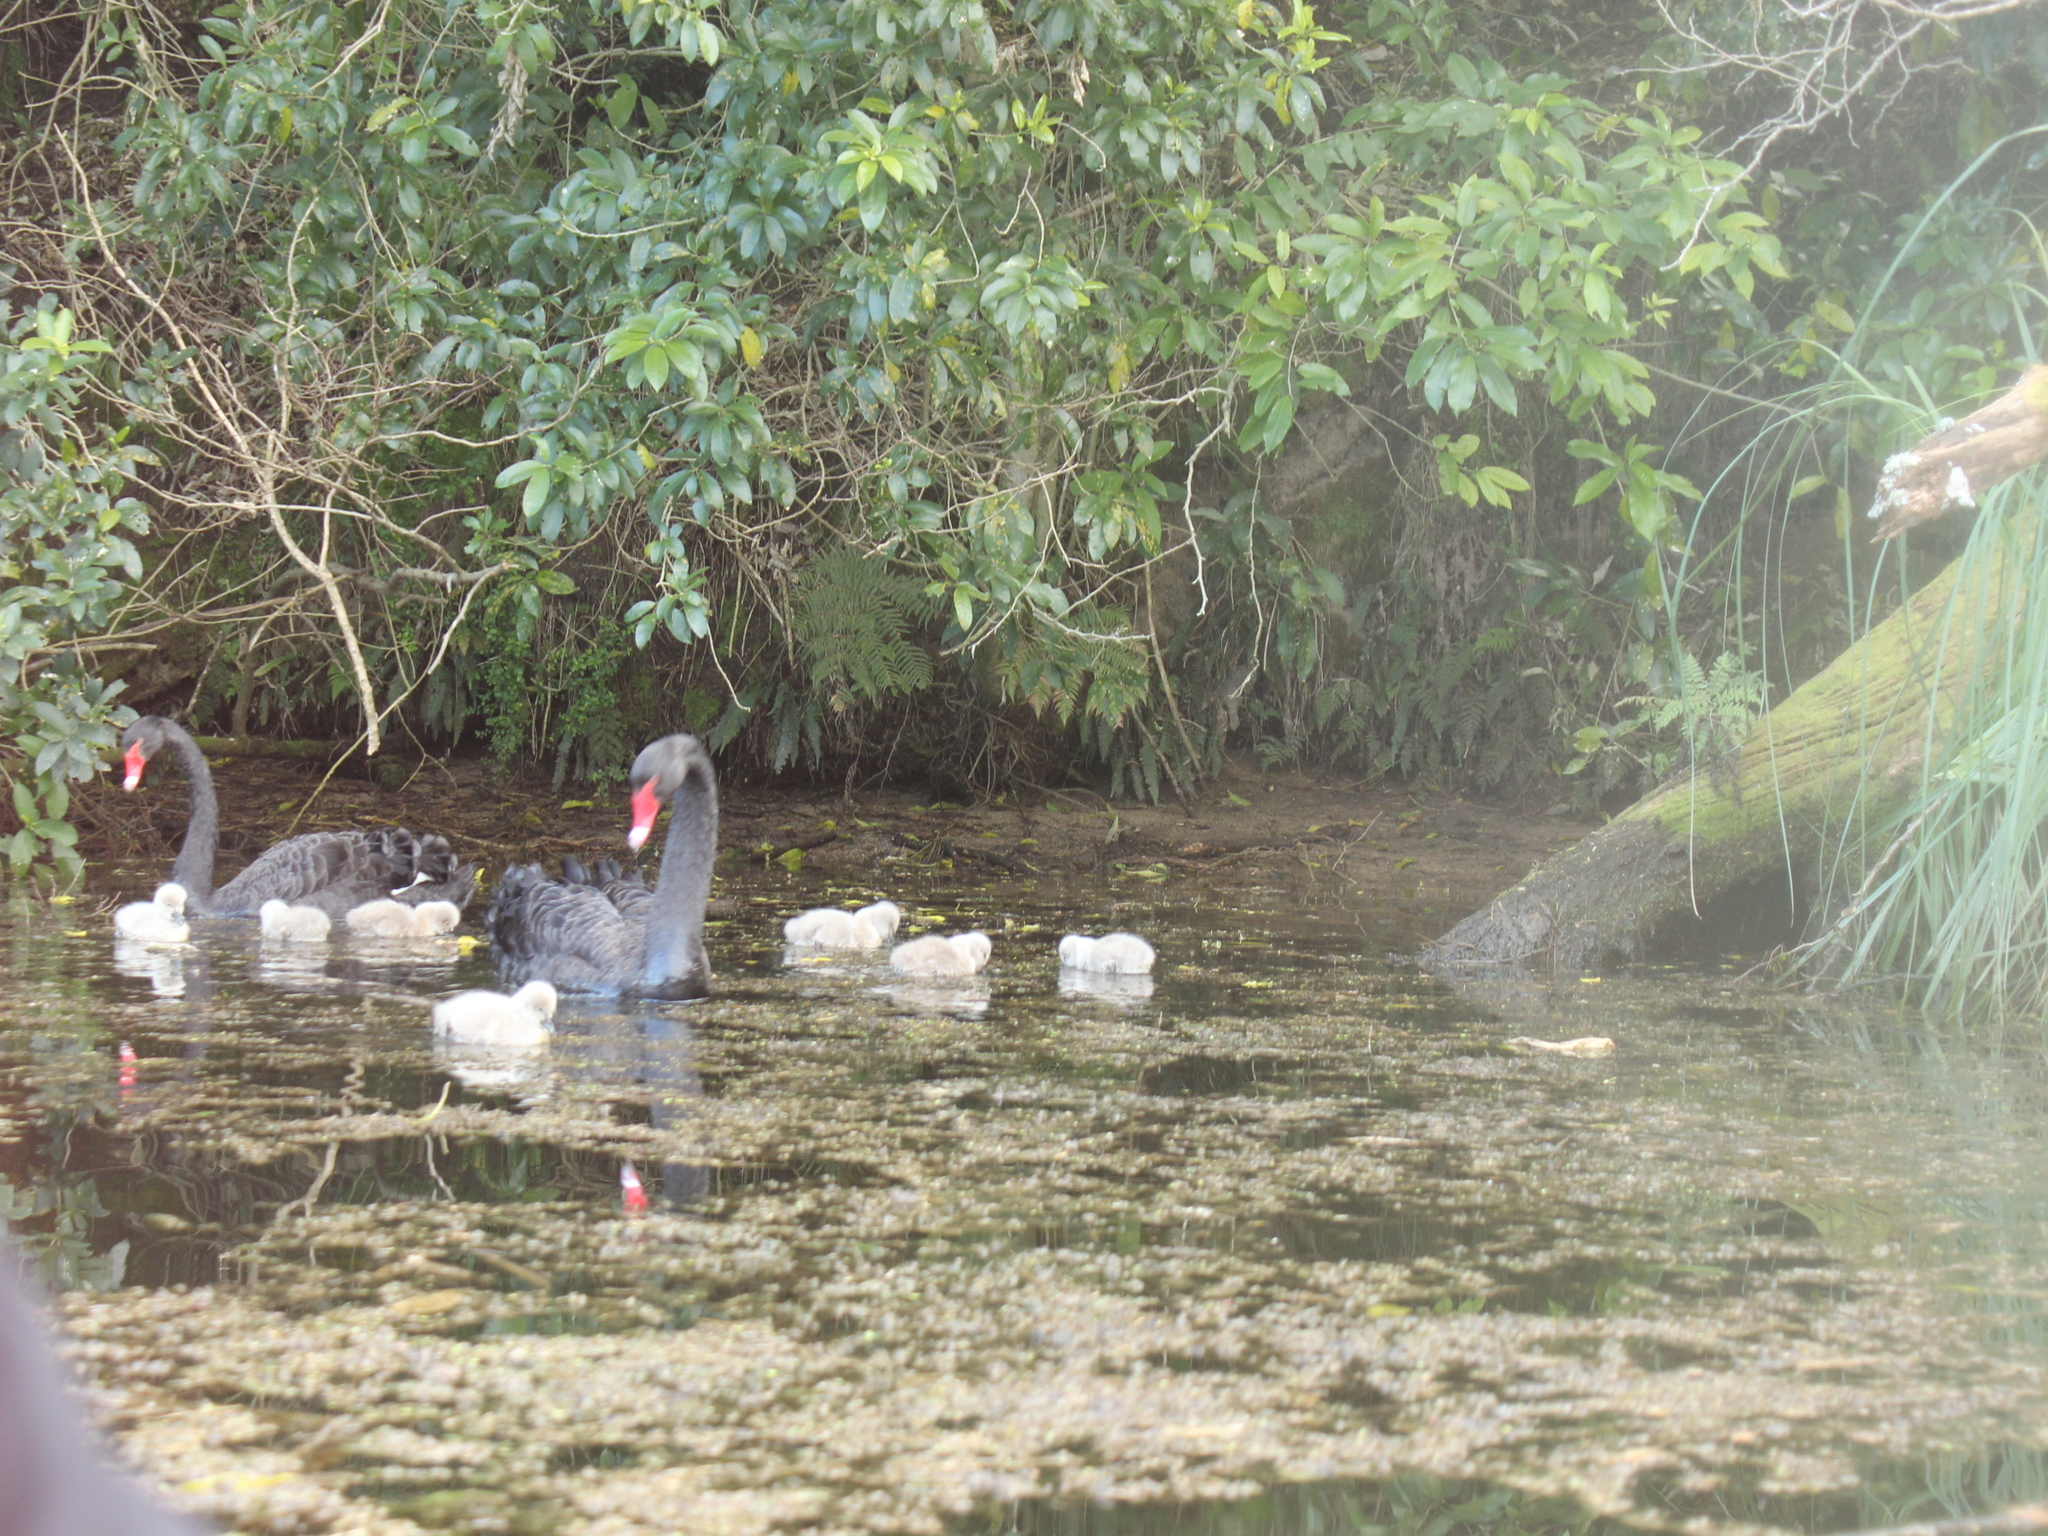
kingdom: Animalia
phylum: Chordata
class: Aves
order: Anseriformes
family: Anatidae
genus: Cygnus
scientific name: Cygnus atratus
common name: Black swan
